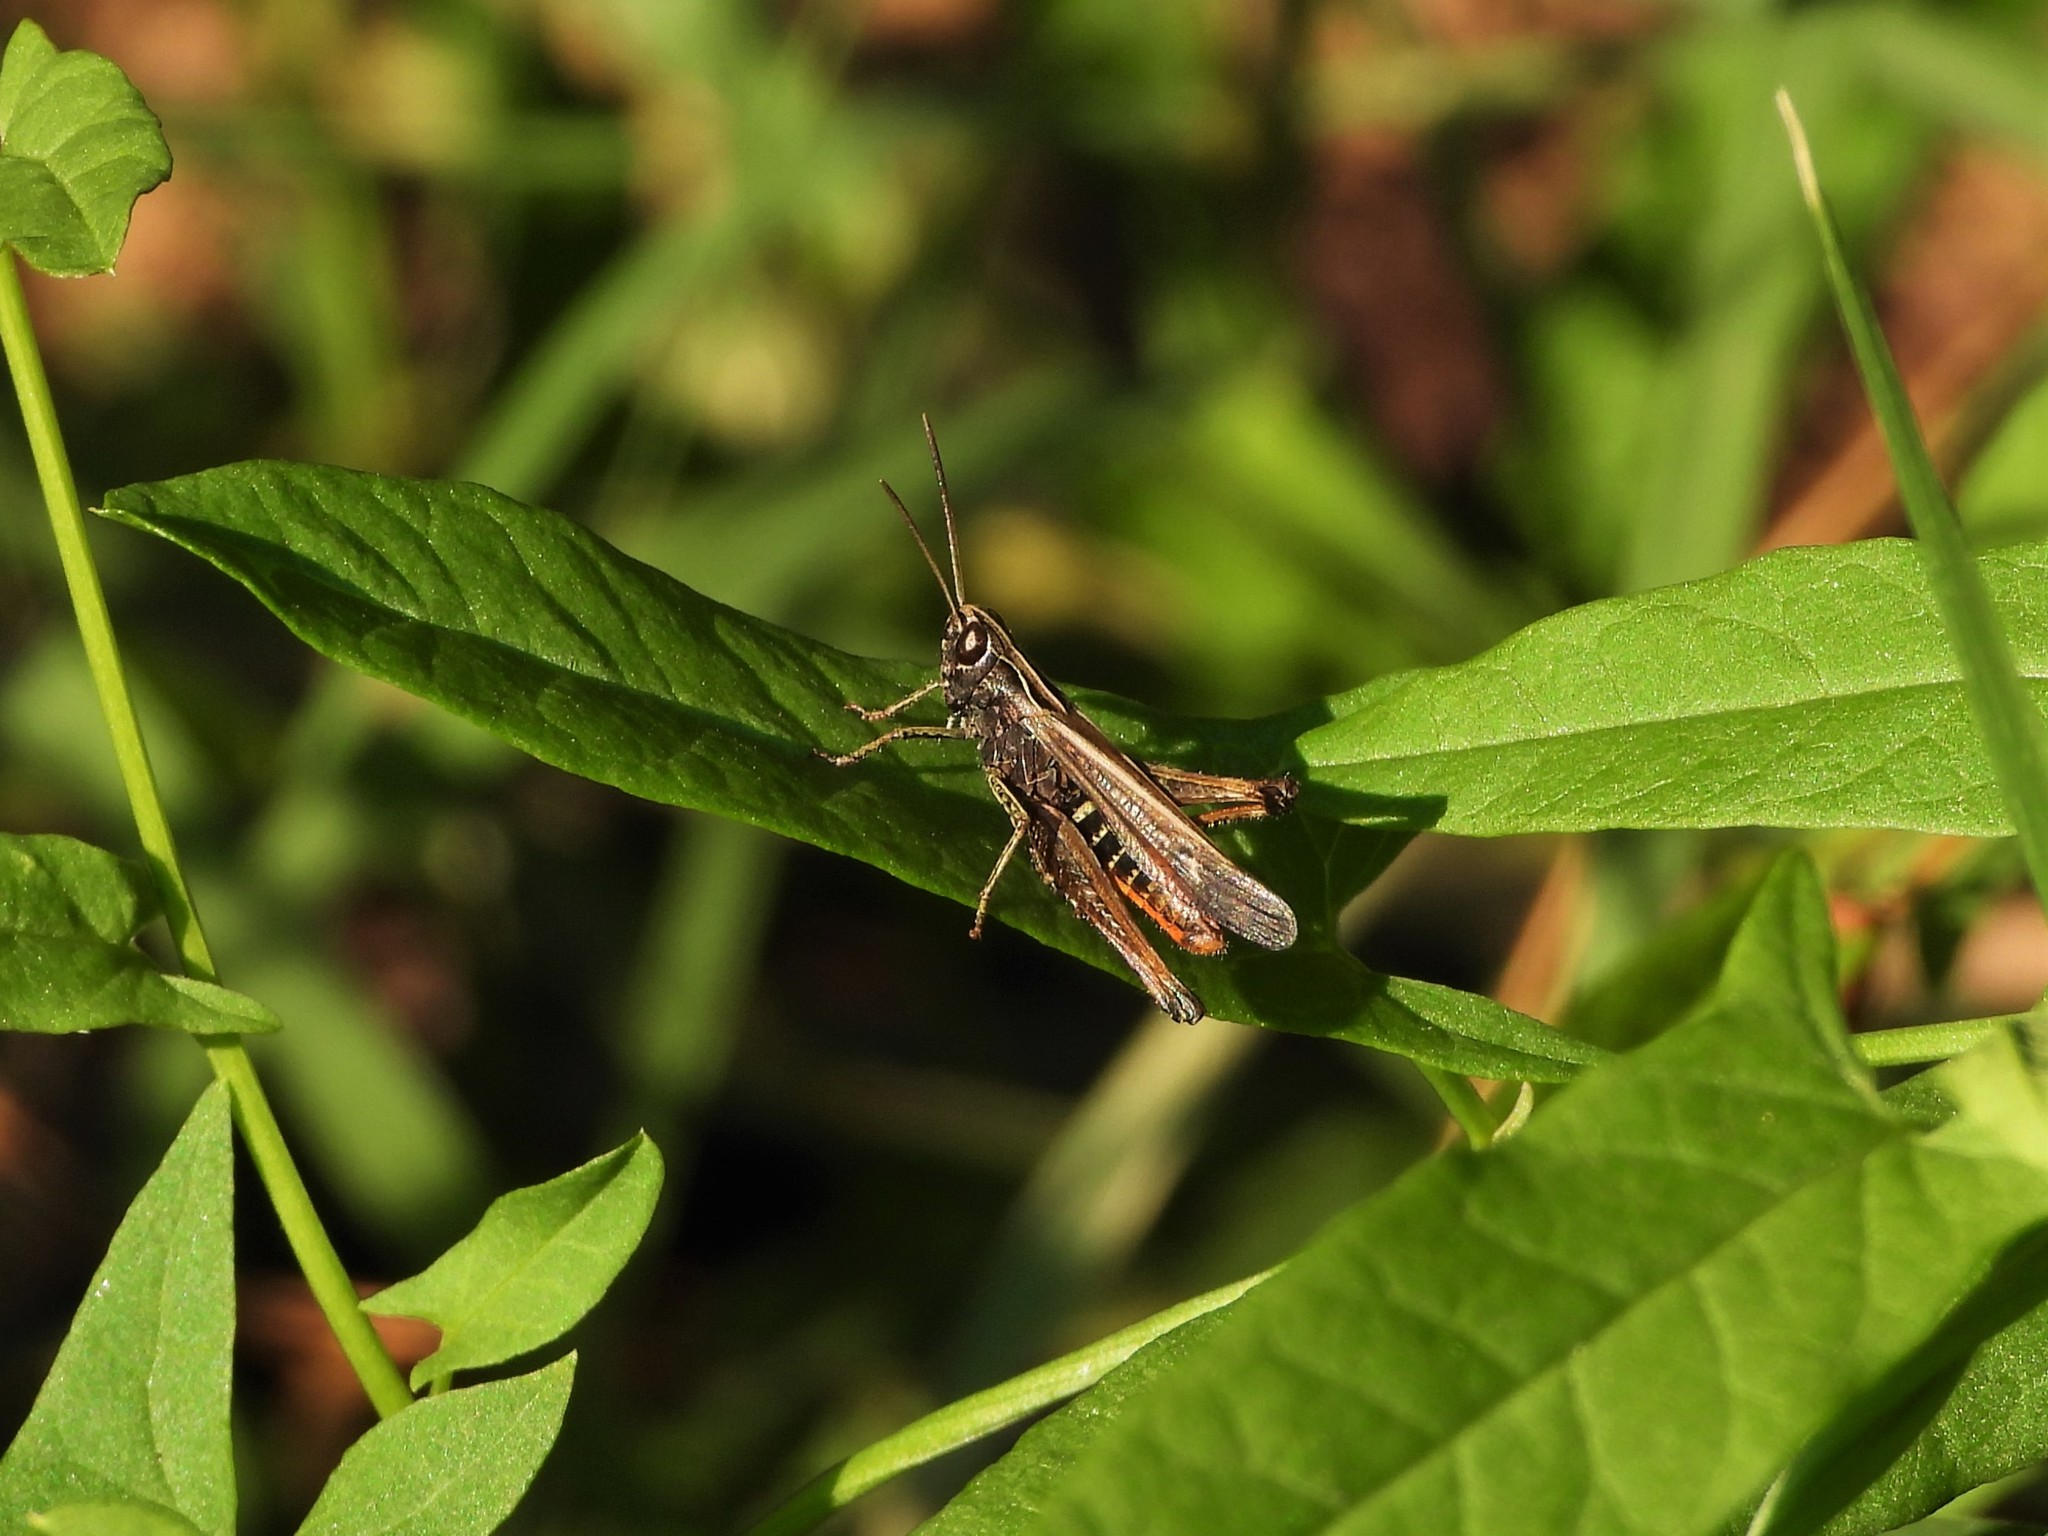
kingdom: Animalia
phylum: Arthropoda
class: Insecta
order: Orthoptera
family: Acrididae
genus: Omocestus
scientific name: Omocestus rufipes
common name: Woodland grasshopper
